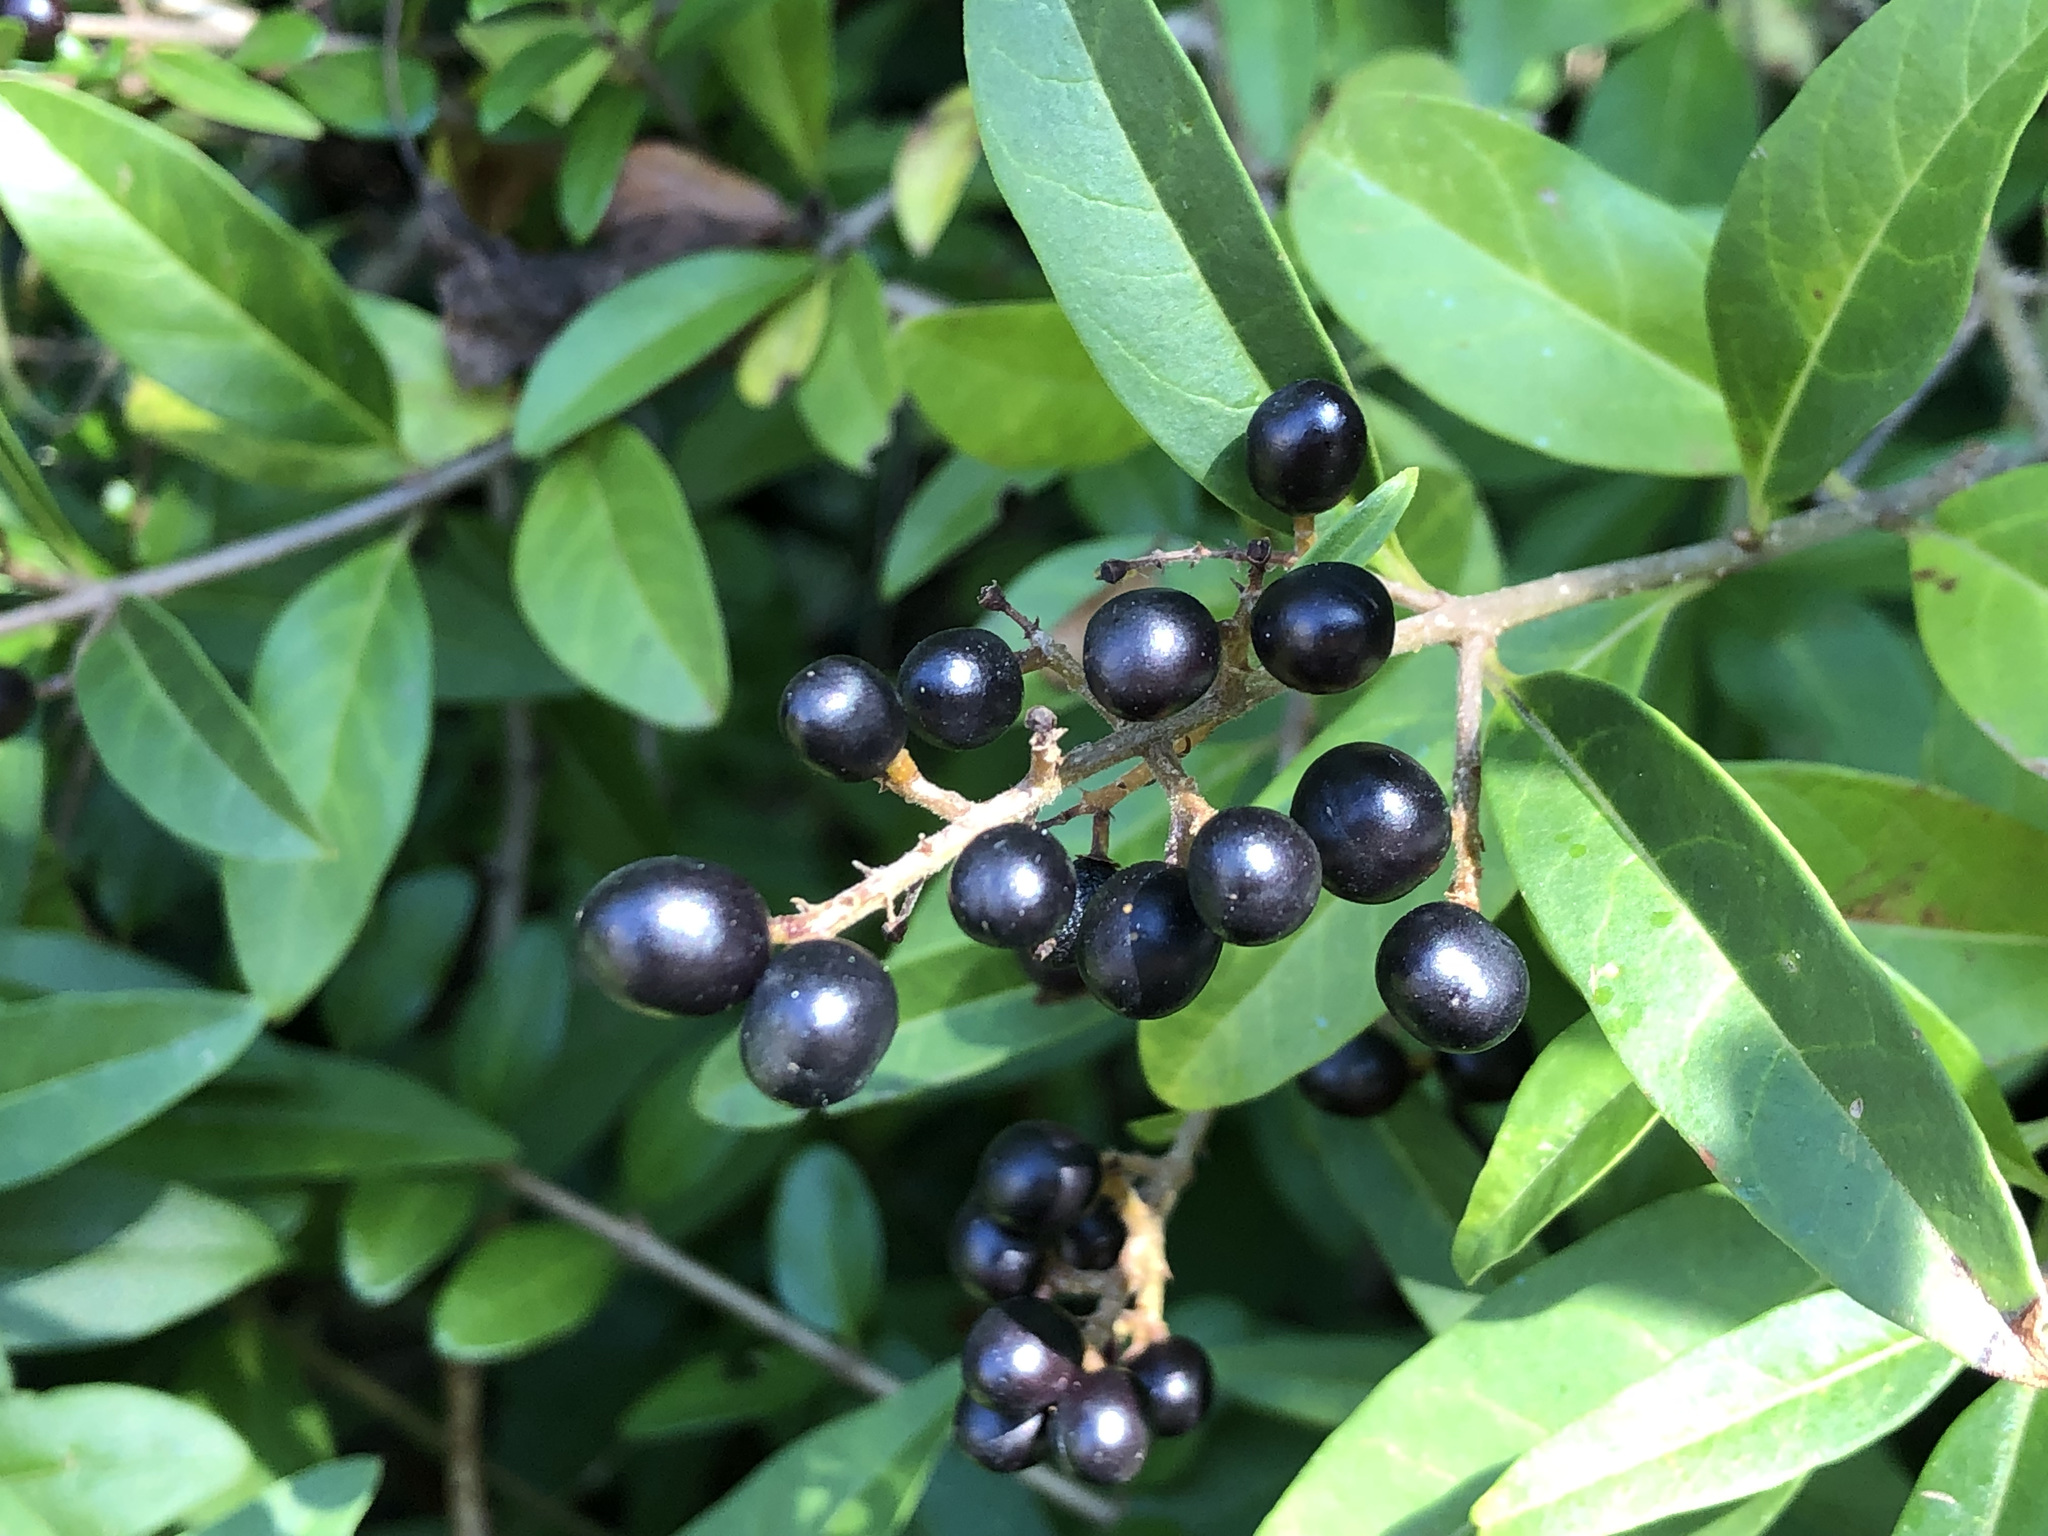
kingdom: Plantae
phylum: Tracheophyta
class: Magnoliopsida
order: Lamiales
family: Oleaceae
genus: Ligustrum
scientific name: Ligustrum vulgare
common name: Wild privet
